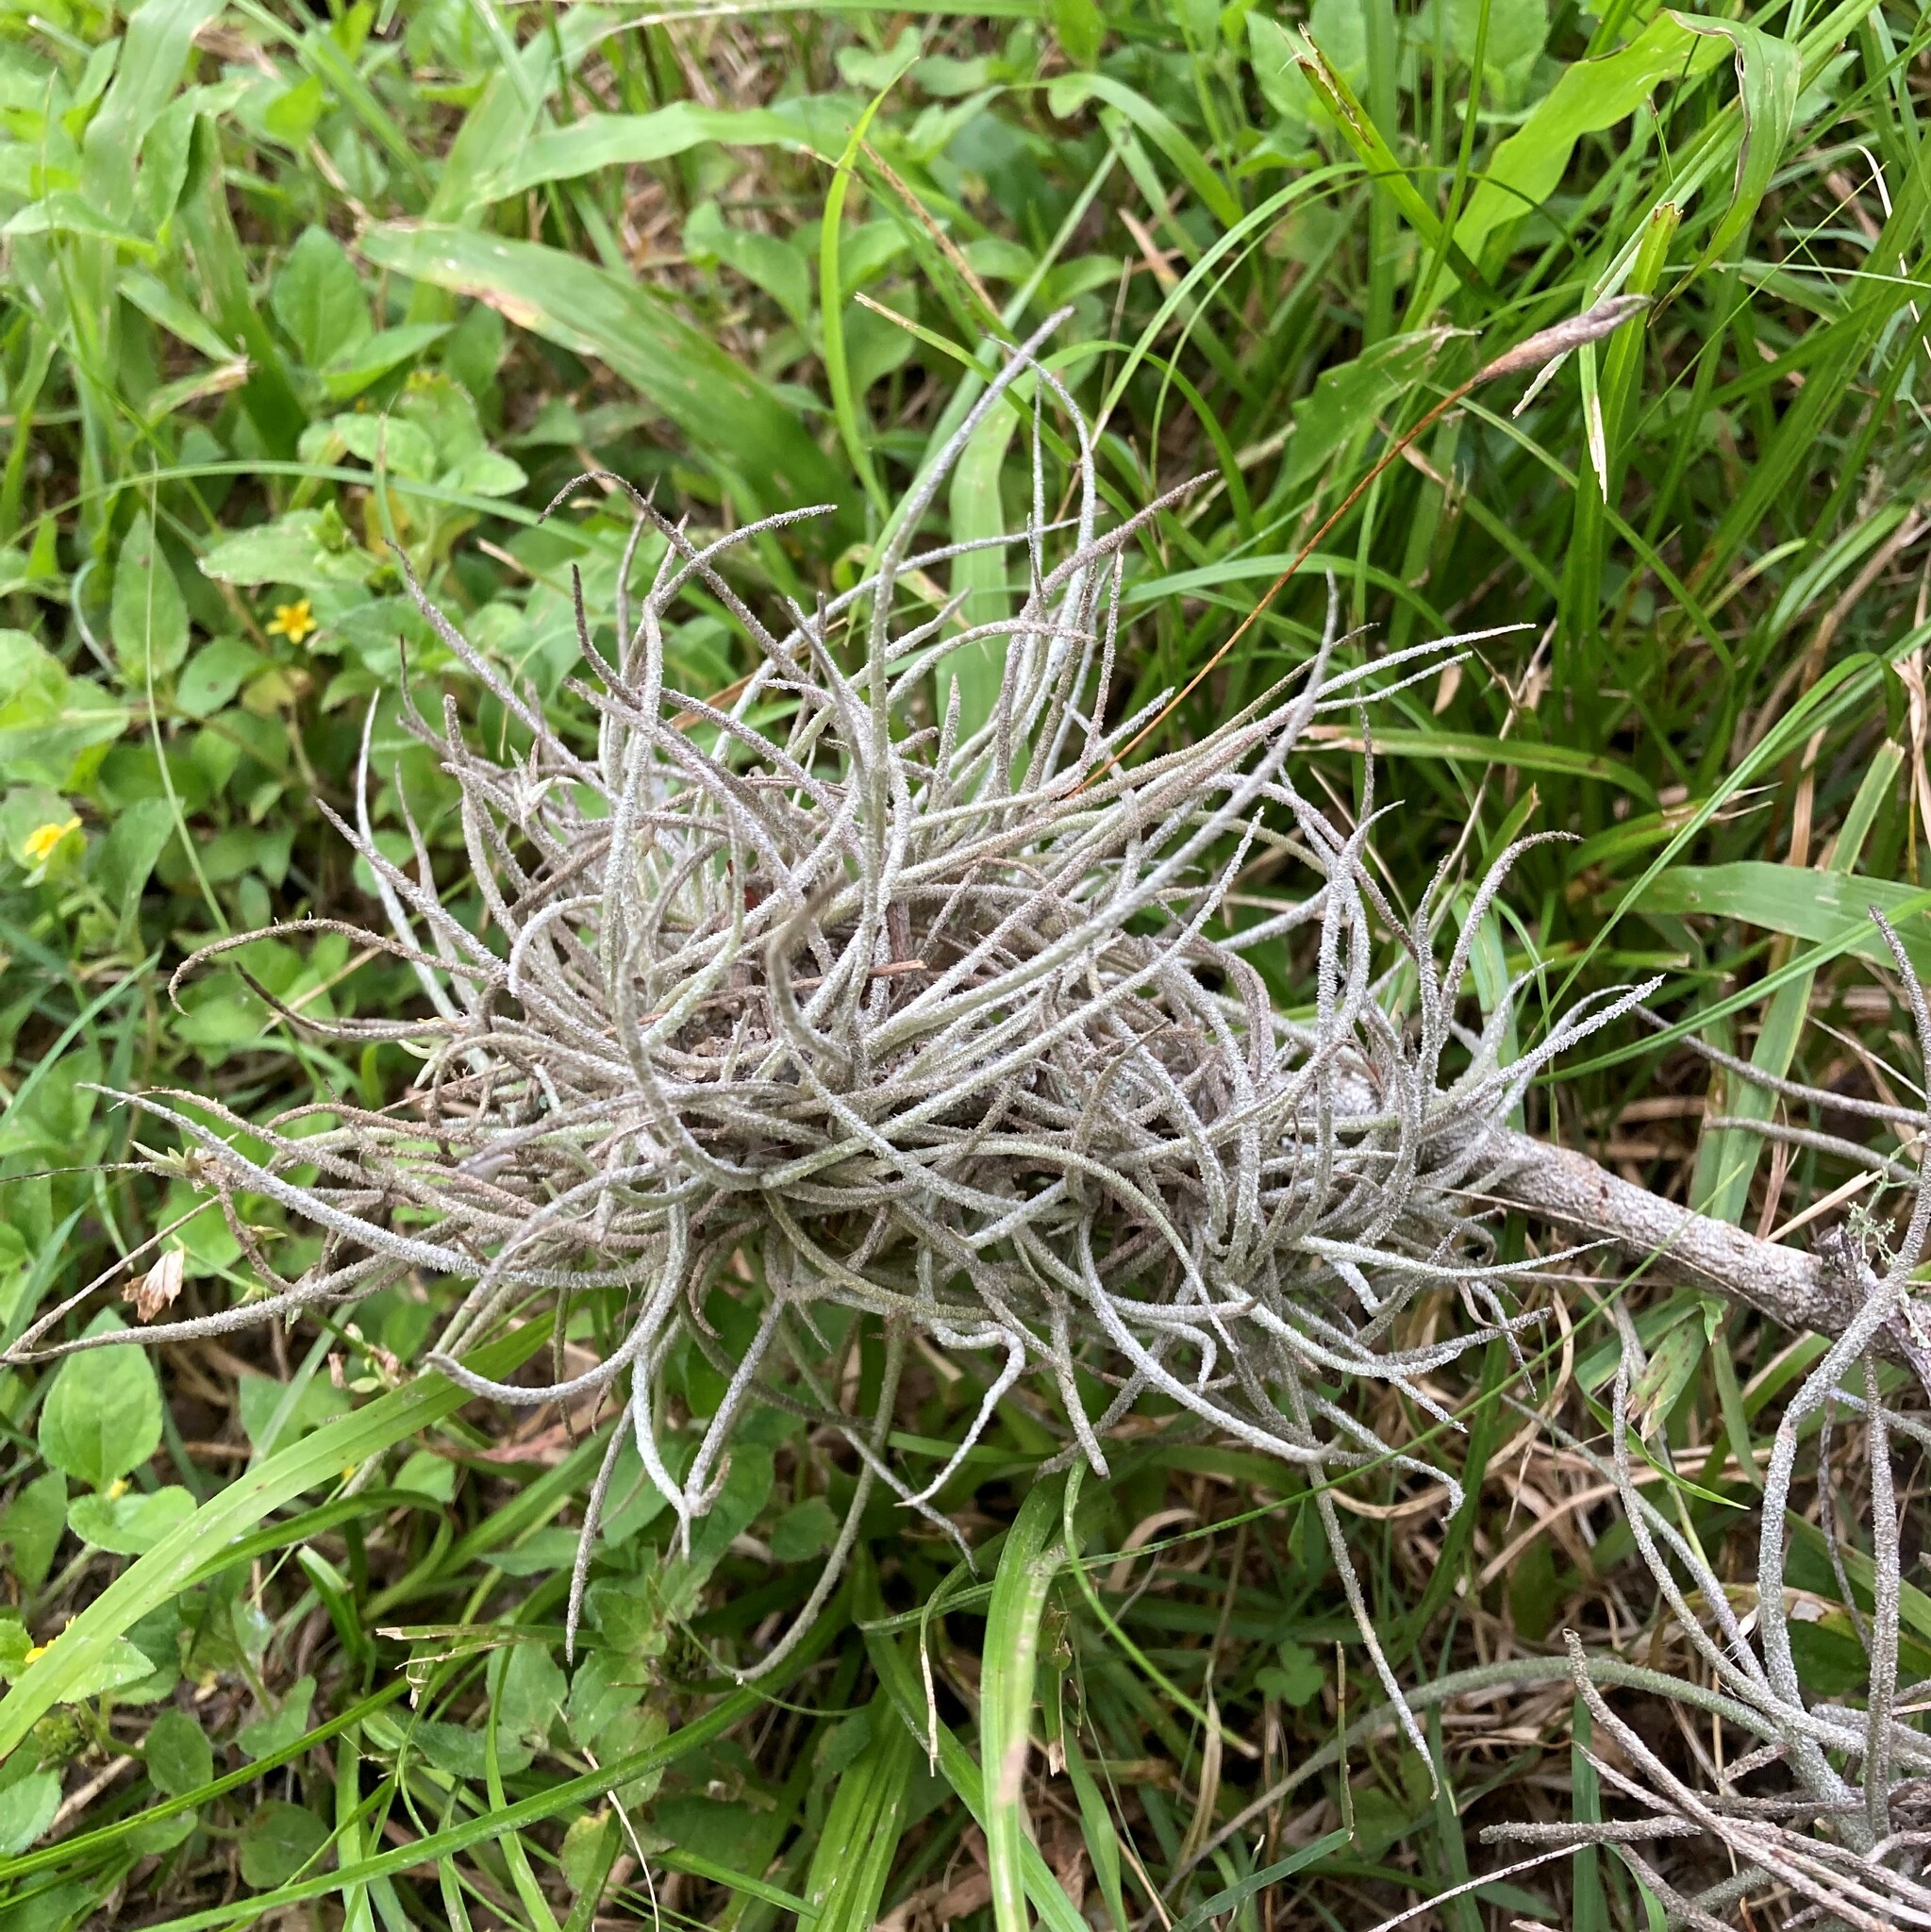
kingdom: Plantae
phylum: Tracheophyta
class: Liliopsida
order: Poales
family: Bromeliaceae
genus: Tillandsia
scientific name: Tillandsia recurvata
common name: Small ballmoss
